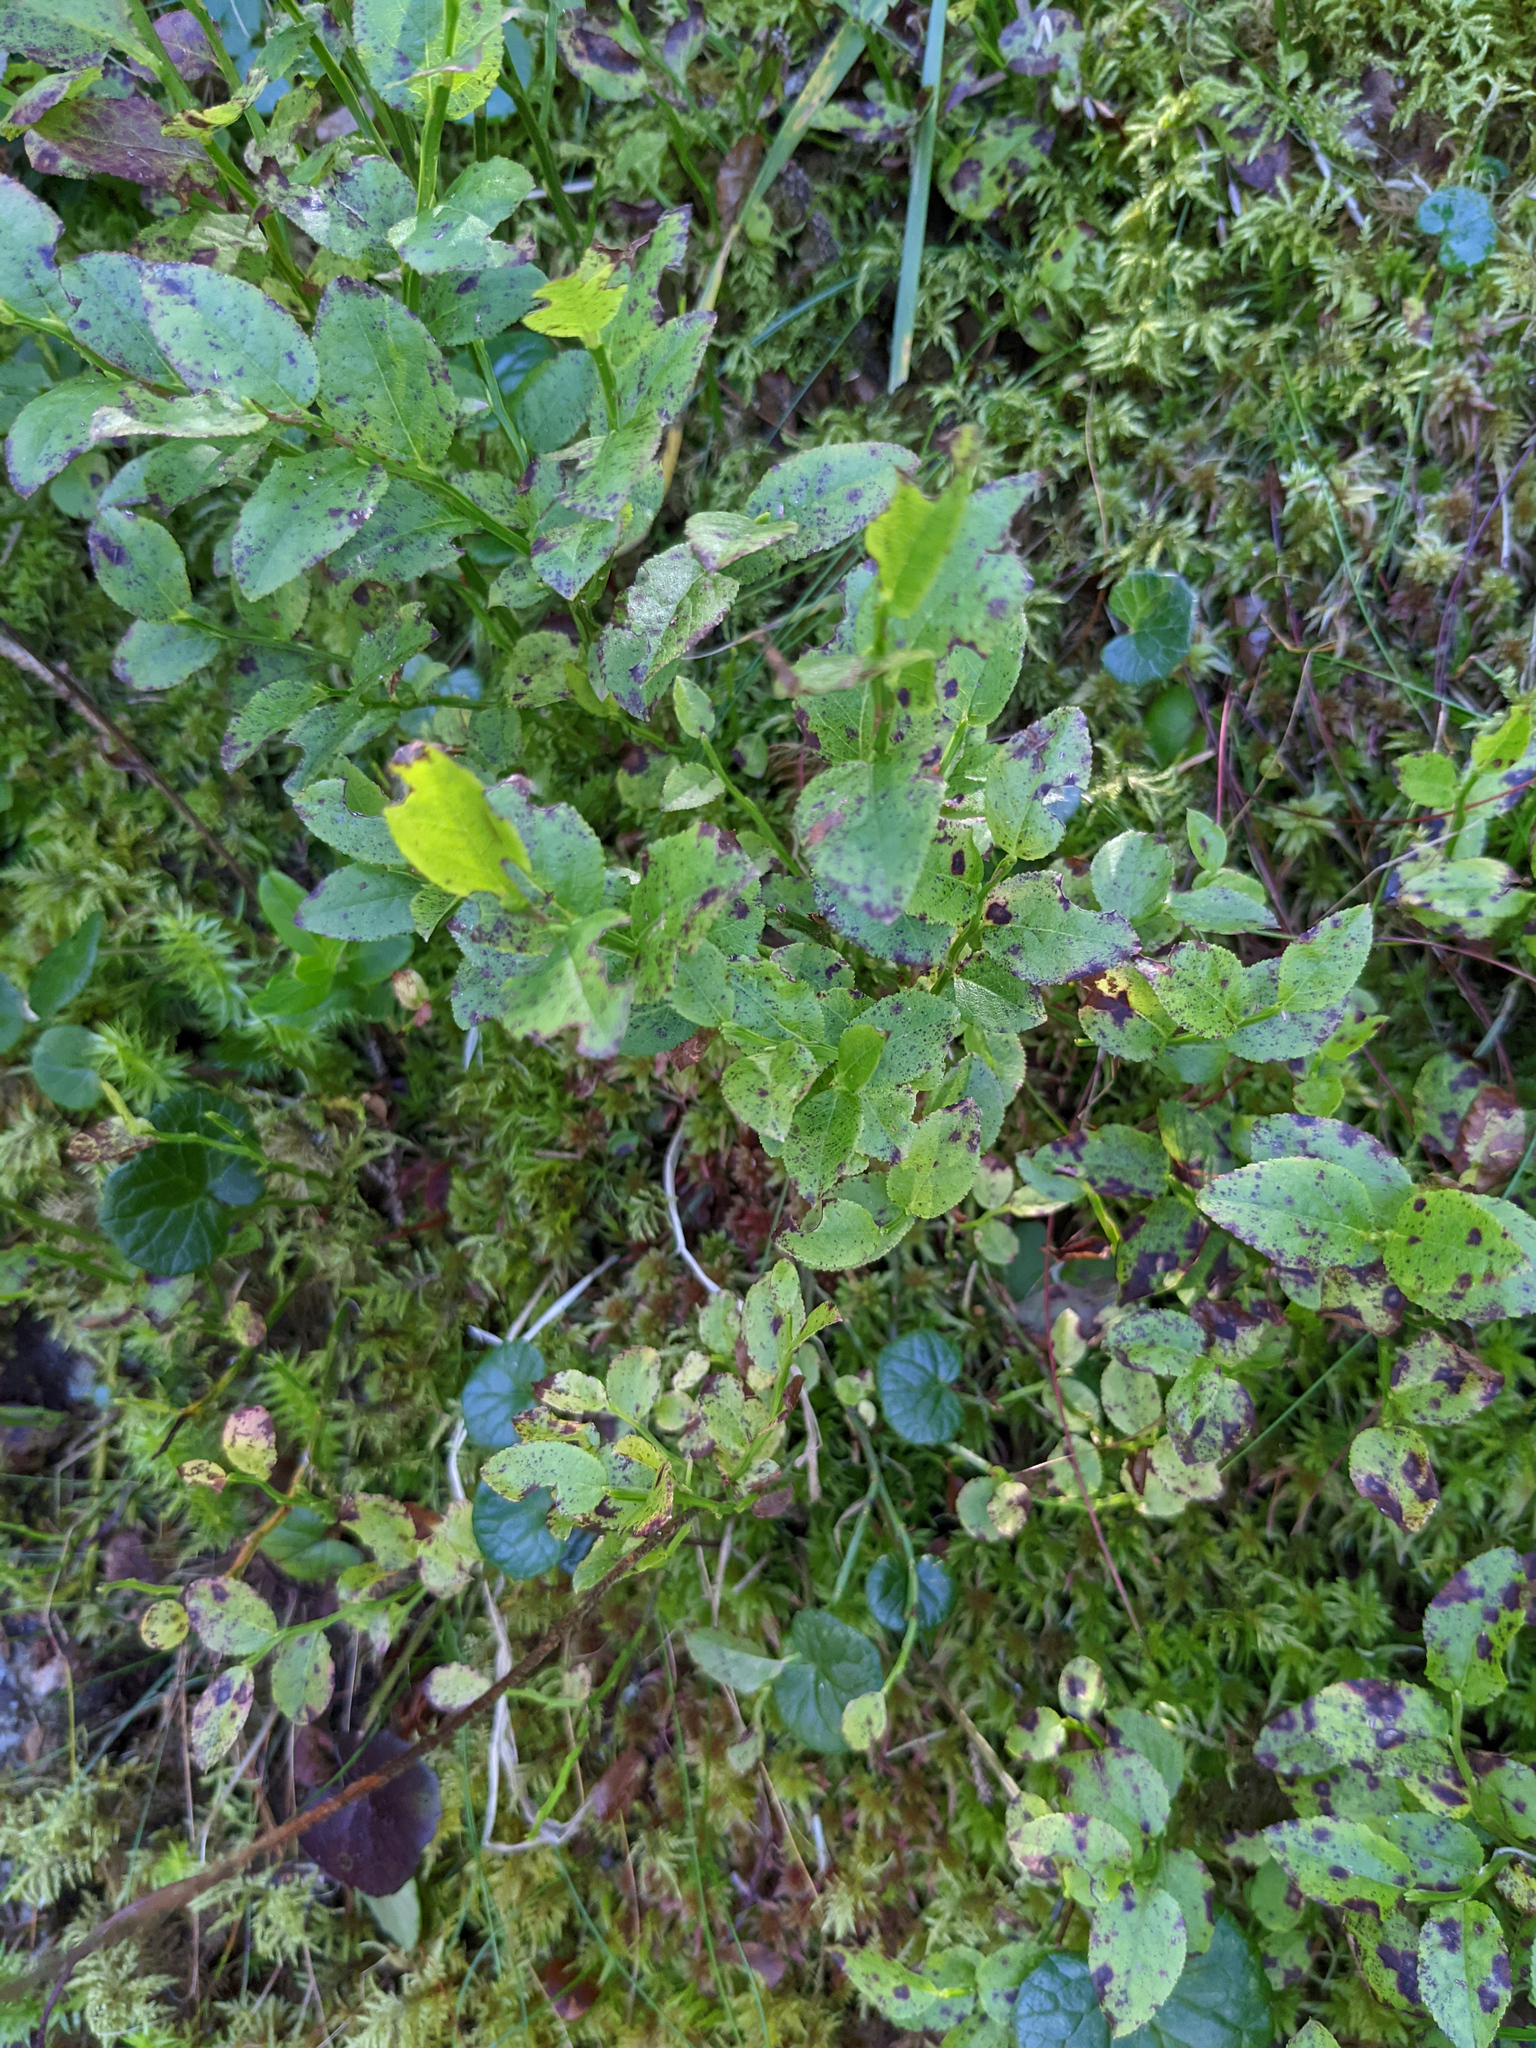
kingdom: Plantae
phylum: Tracheophyta
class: Magnoliopsida
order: Ericales
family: Ericaceae
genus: Vaccinium
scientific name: Vaccinium myrtillus
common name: Bilberry
